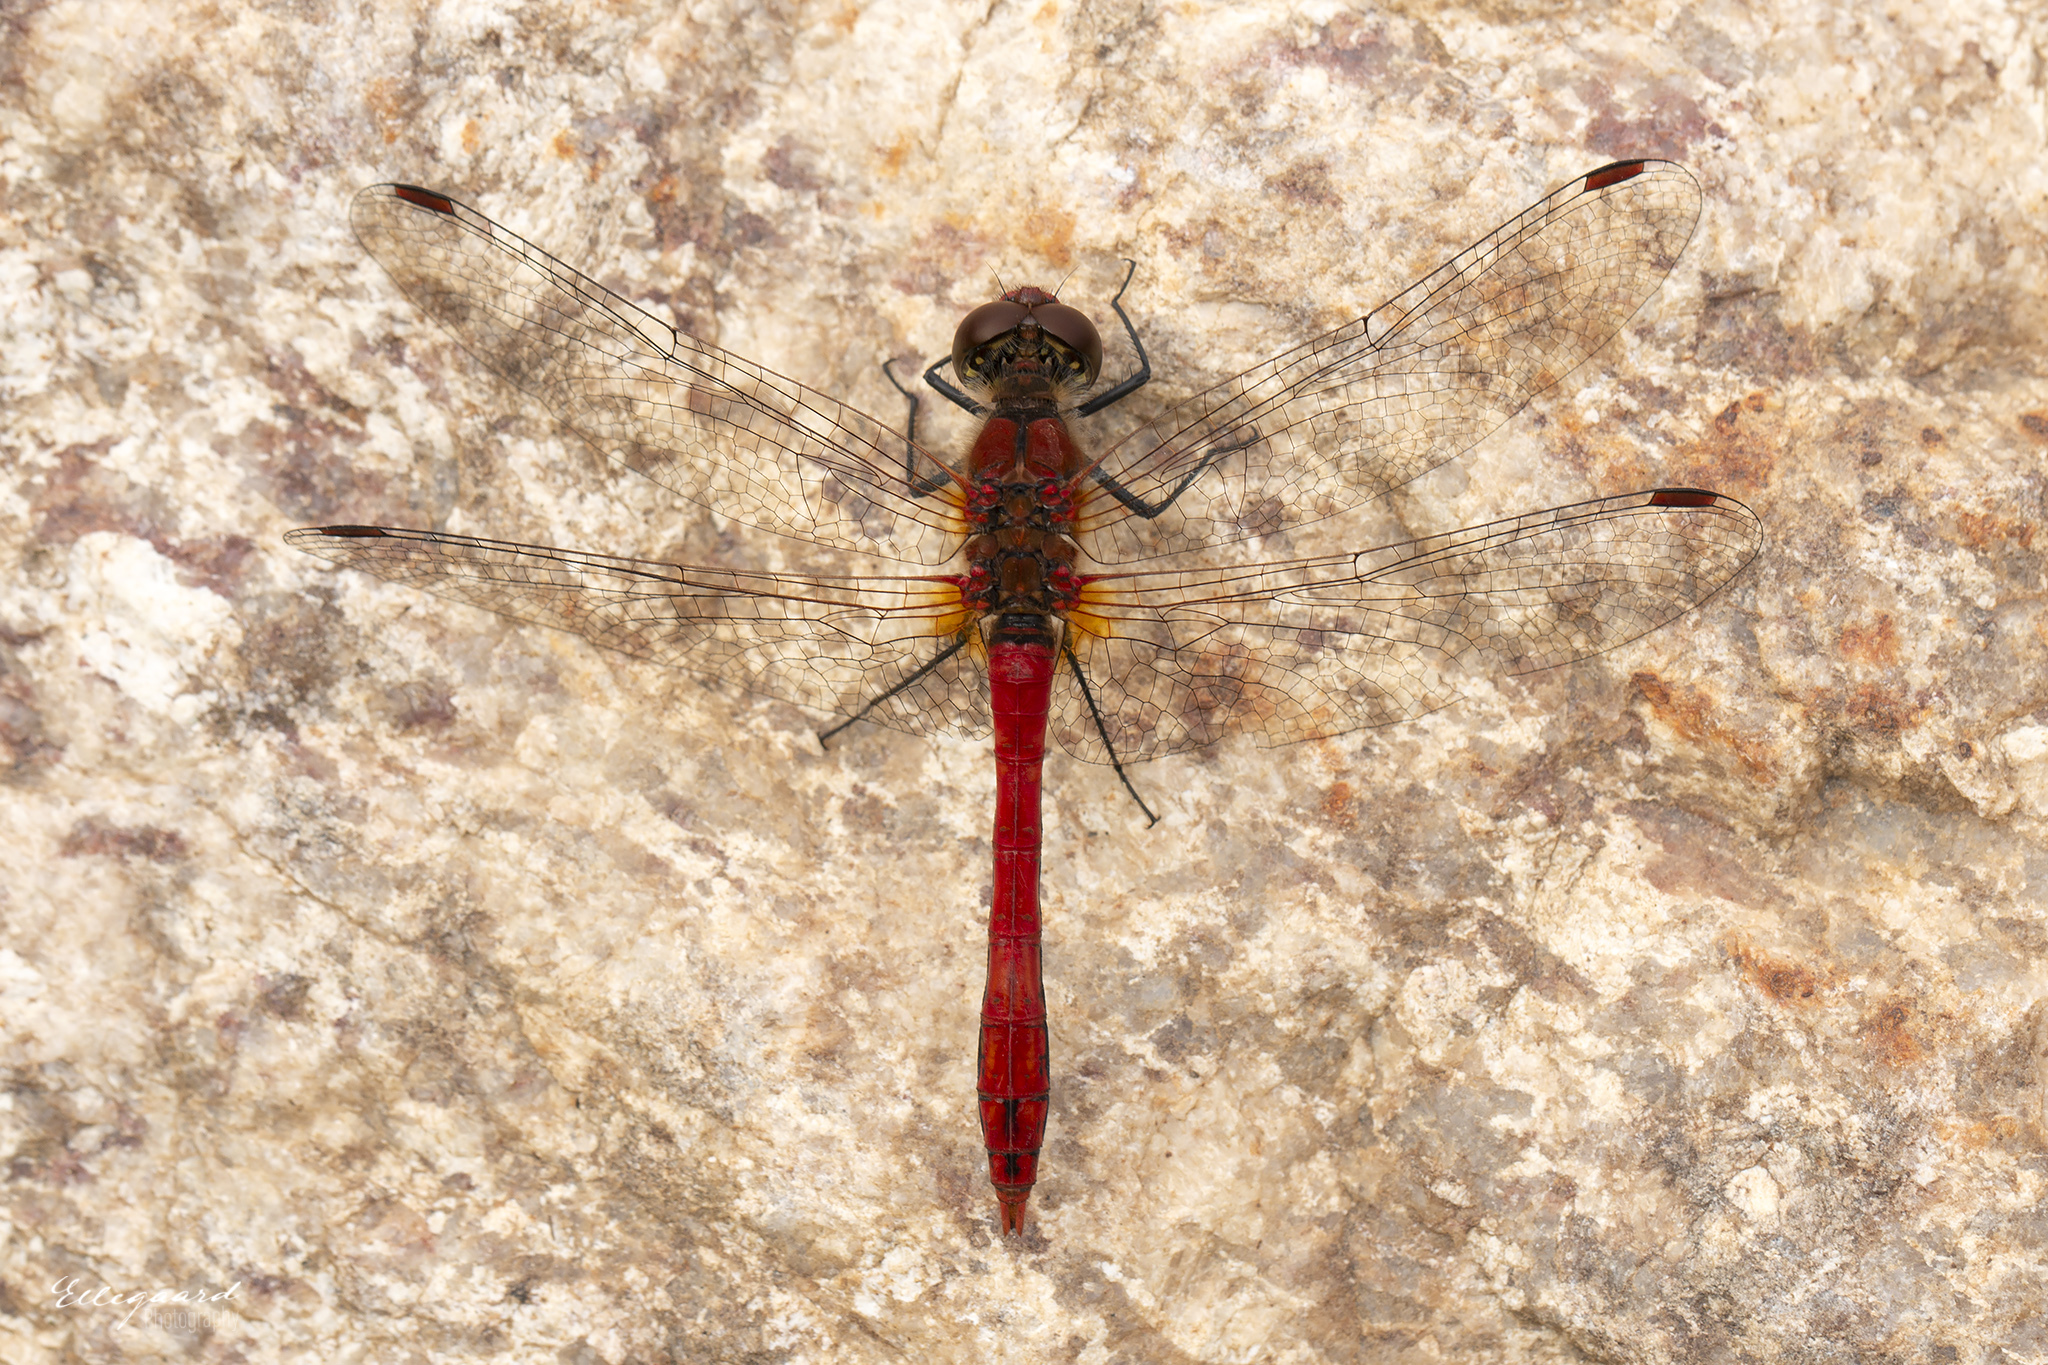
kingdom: Animalia
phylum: Arthropoda
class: Insecta
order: Odonata
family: Libellulidae
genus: Sympetrum
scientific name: Sympetrum sanguineum
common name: Ruddy darter
